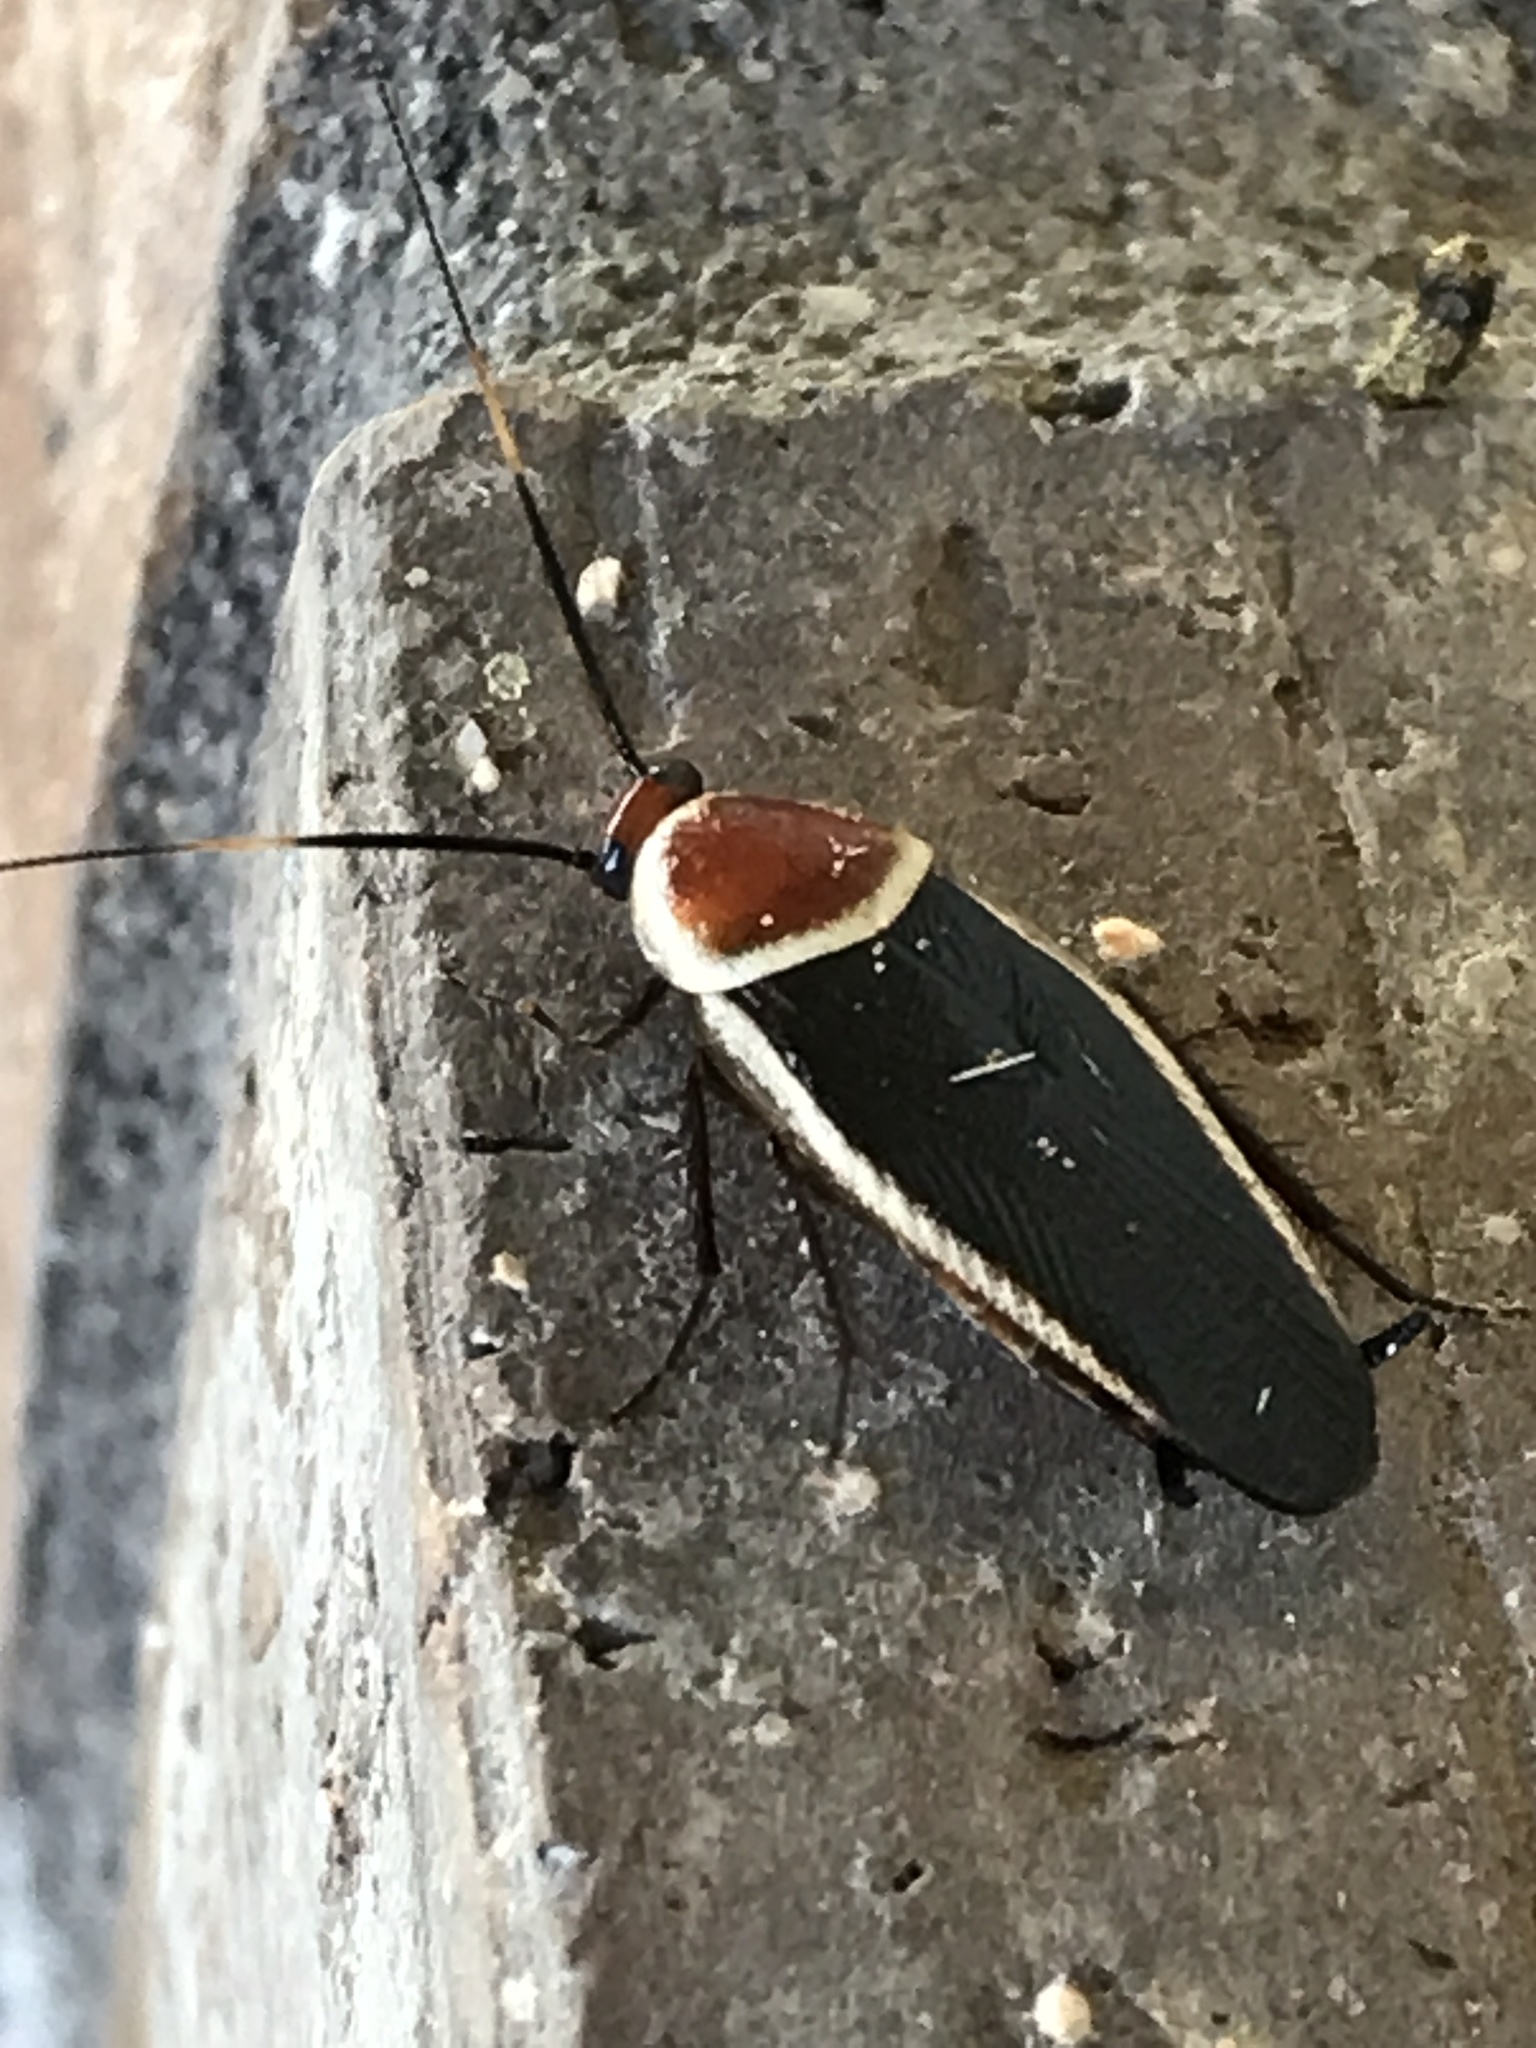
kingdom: Animalia
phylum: Arthropoda
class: Insecta
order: Blattodea
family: Ectobiidae
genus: Pseudomops
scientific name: Pseudomops septentrionalis
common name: Pale-bordered field cockroach
